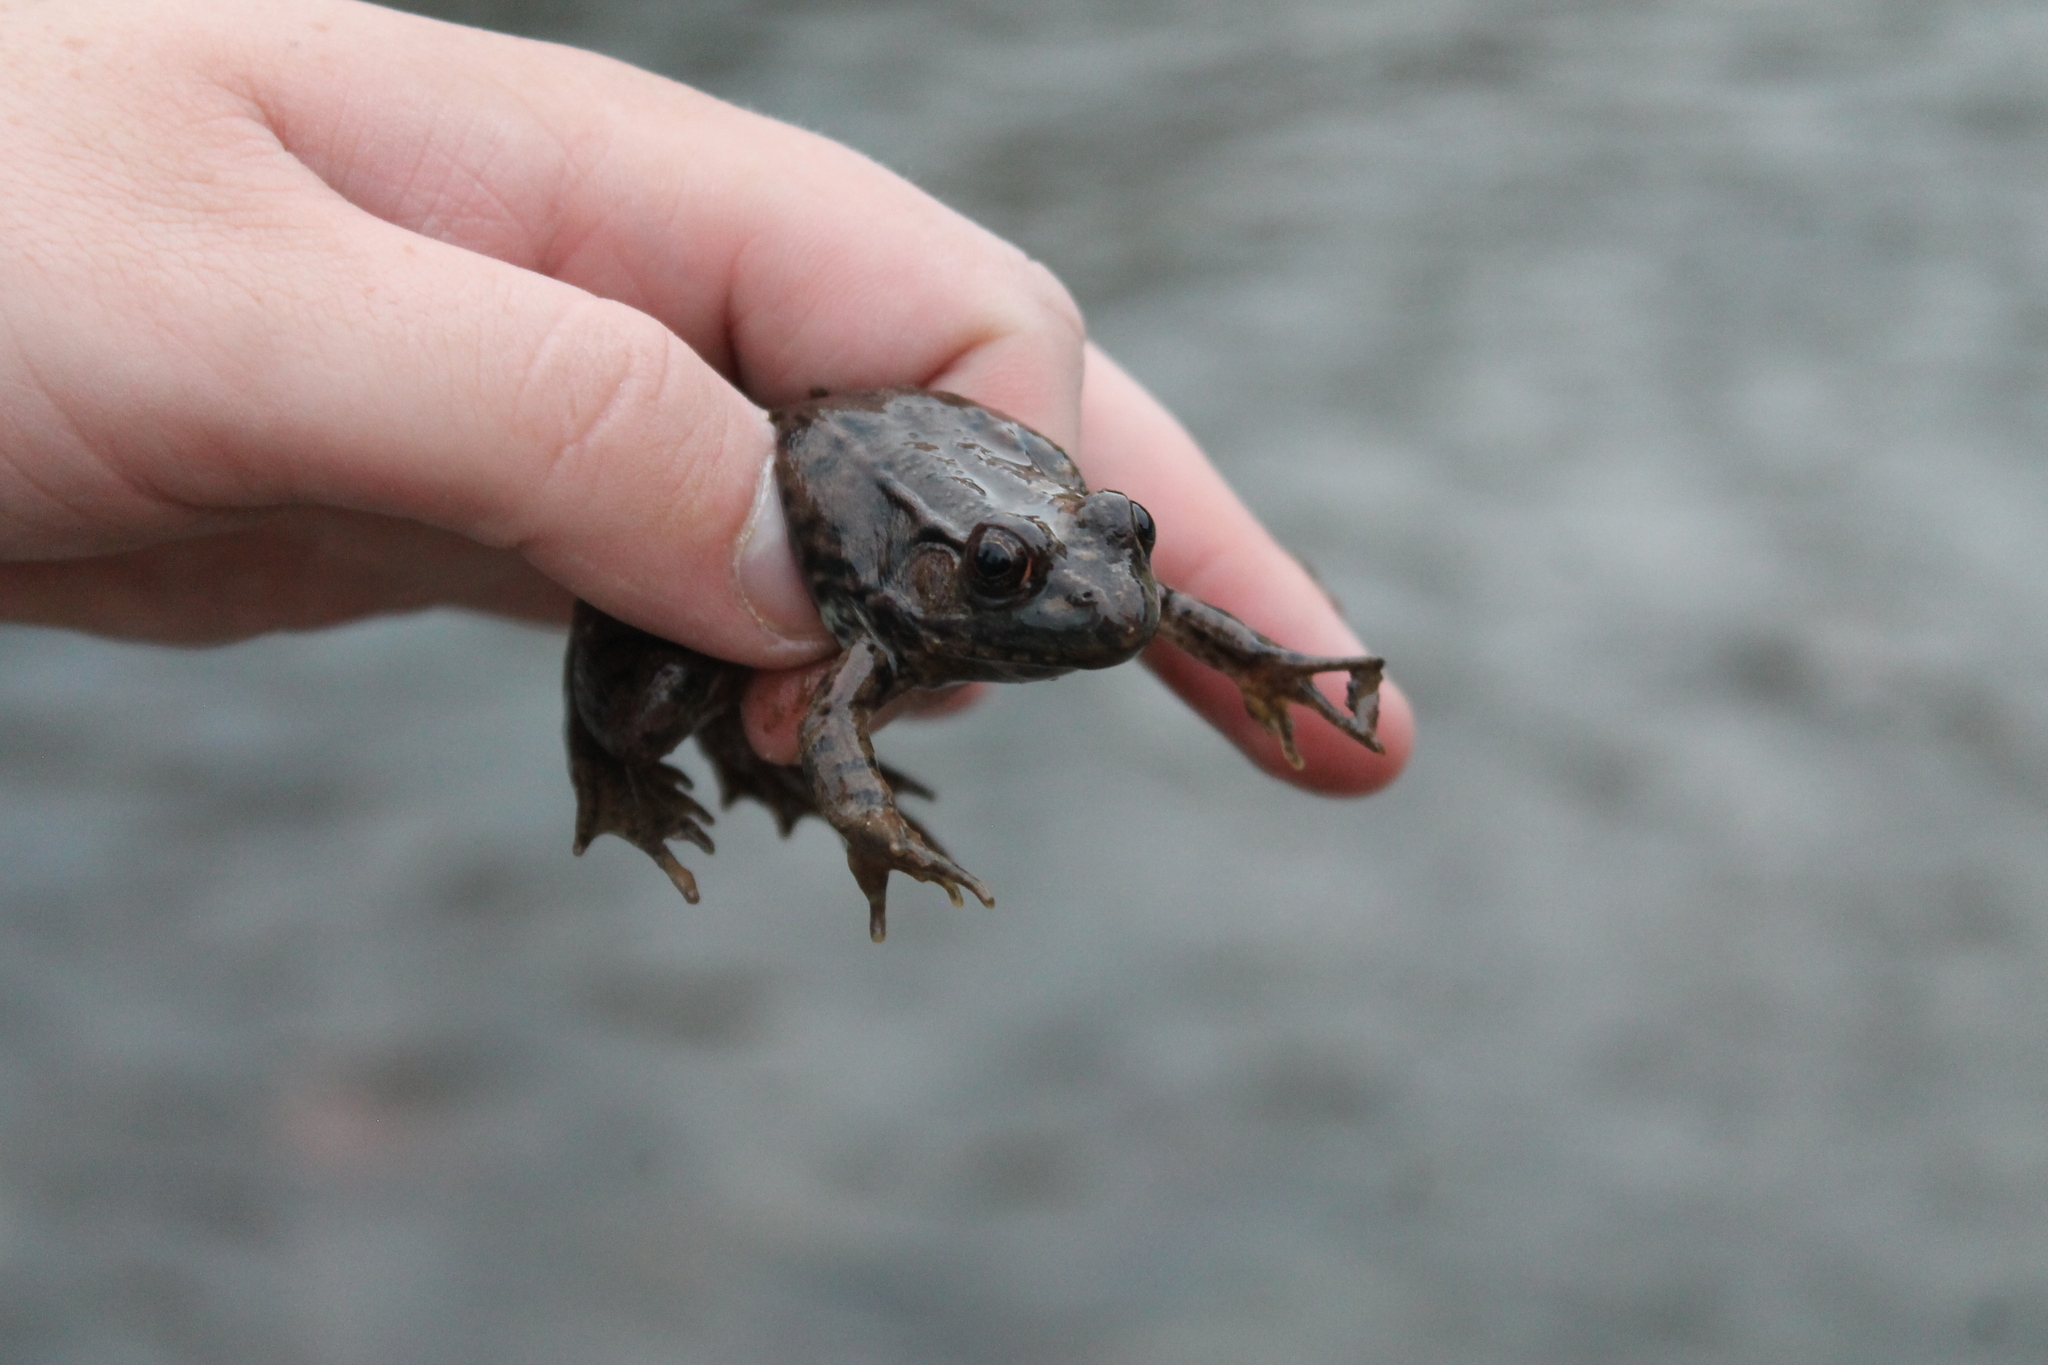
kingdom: Animalia
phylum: Chordata
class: Amphibia
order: Anura
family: Ranidae
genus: Lithobates
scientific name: Lithobates clamitans
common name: Green frog
